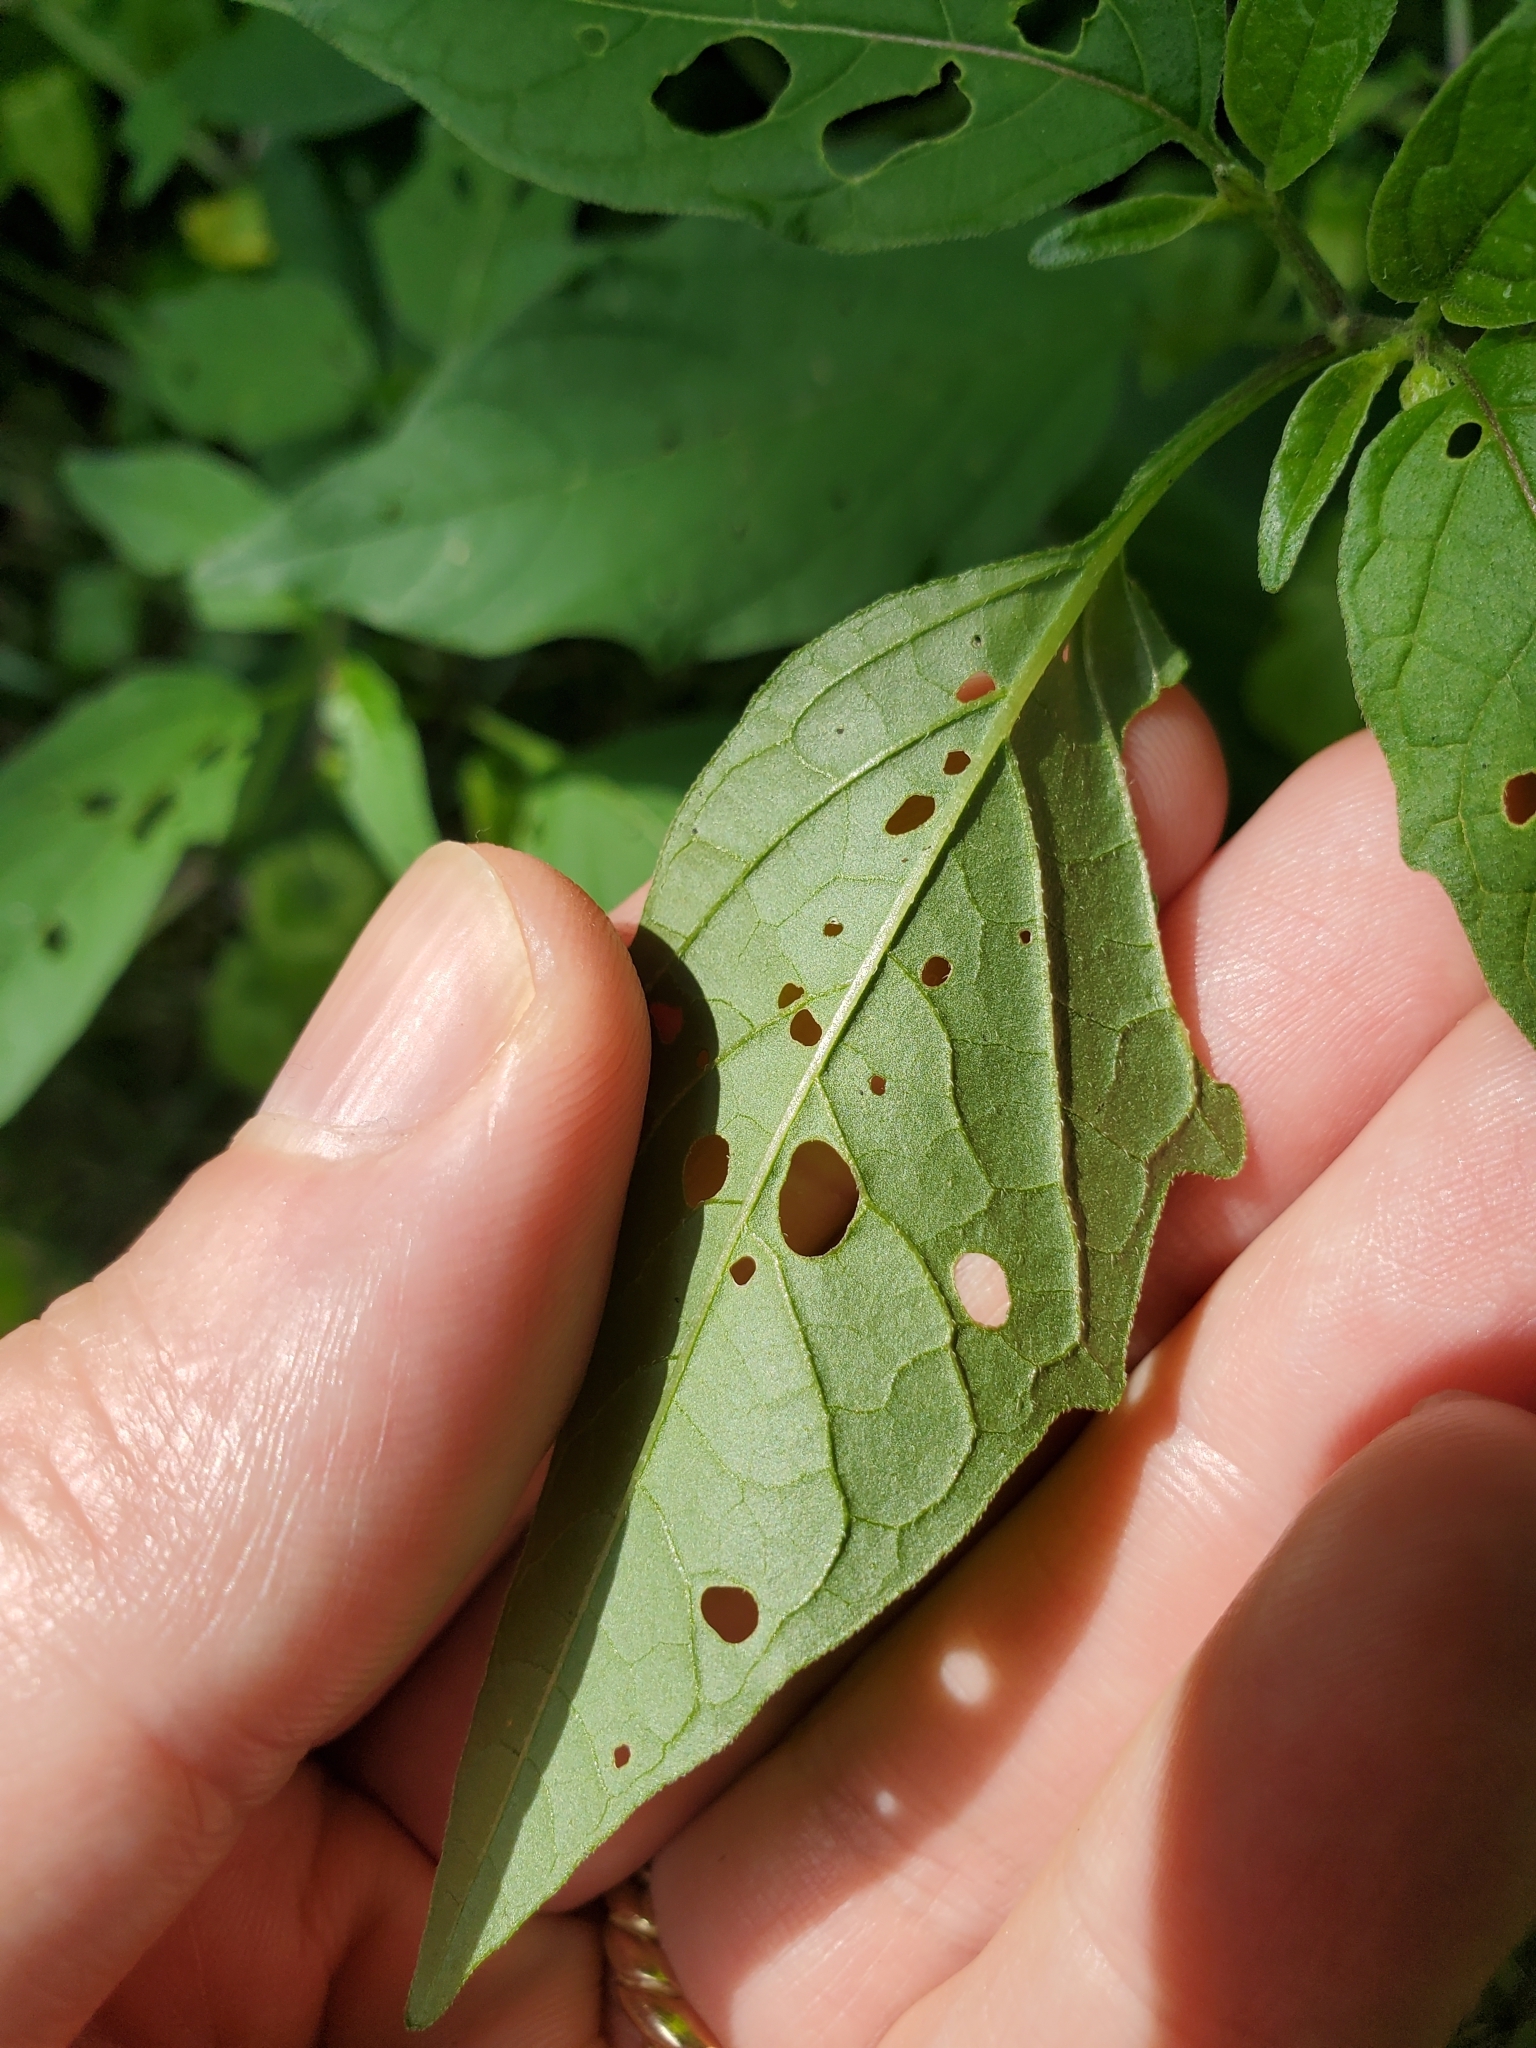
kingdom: Plantae
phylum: Tracheophyta
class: Magnoliopsida
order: Solanales
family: Solanaceae
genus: Physalis
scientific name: Physalis longifolia
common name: Common ground-cherry
